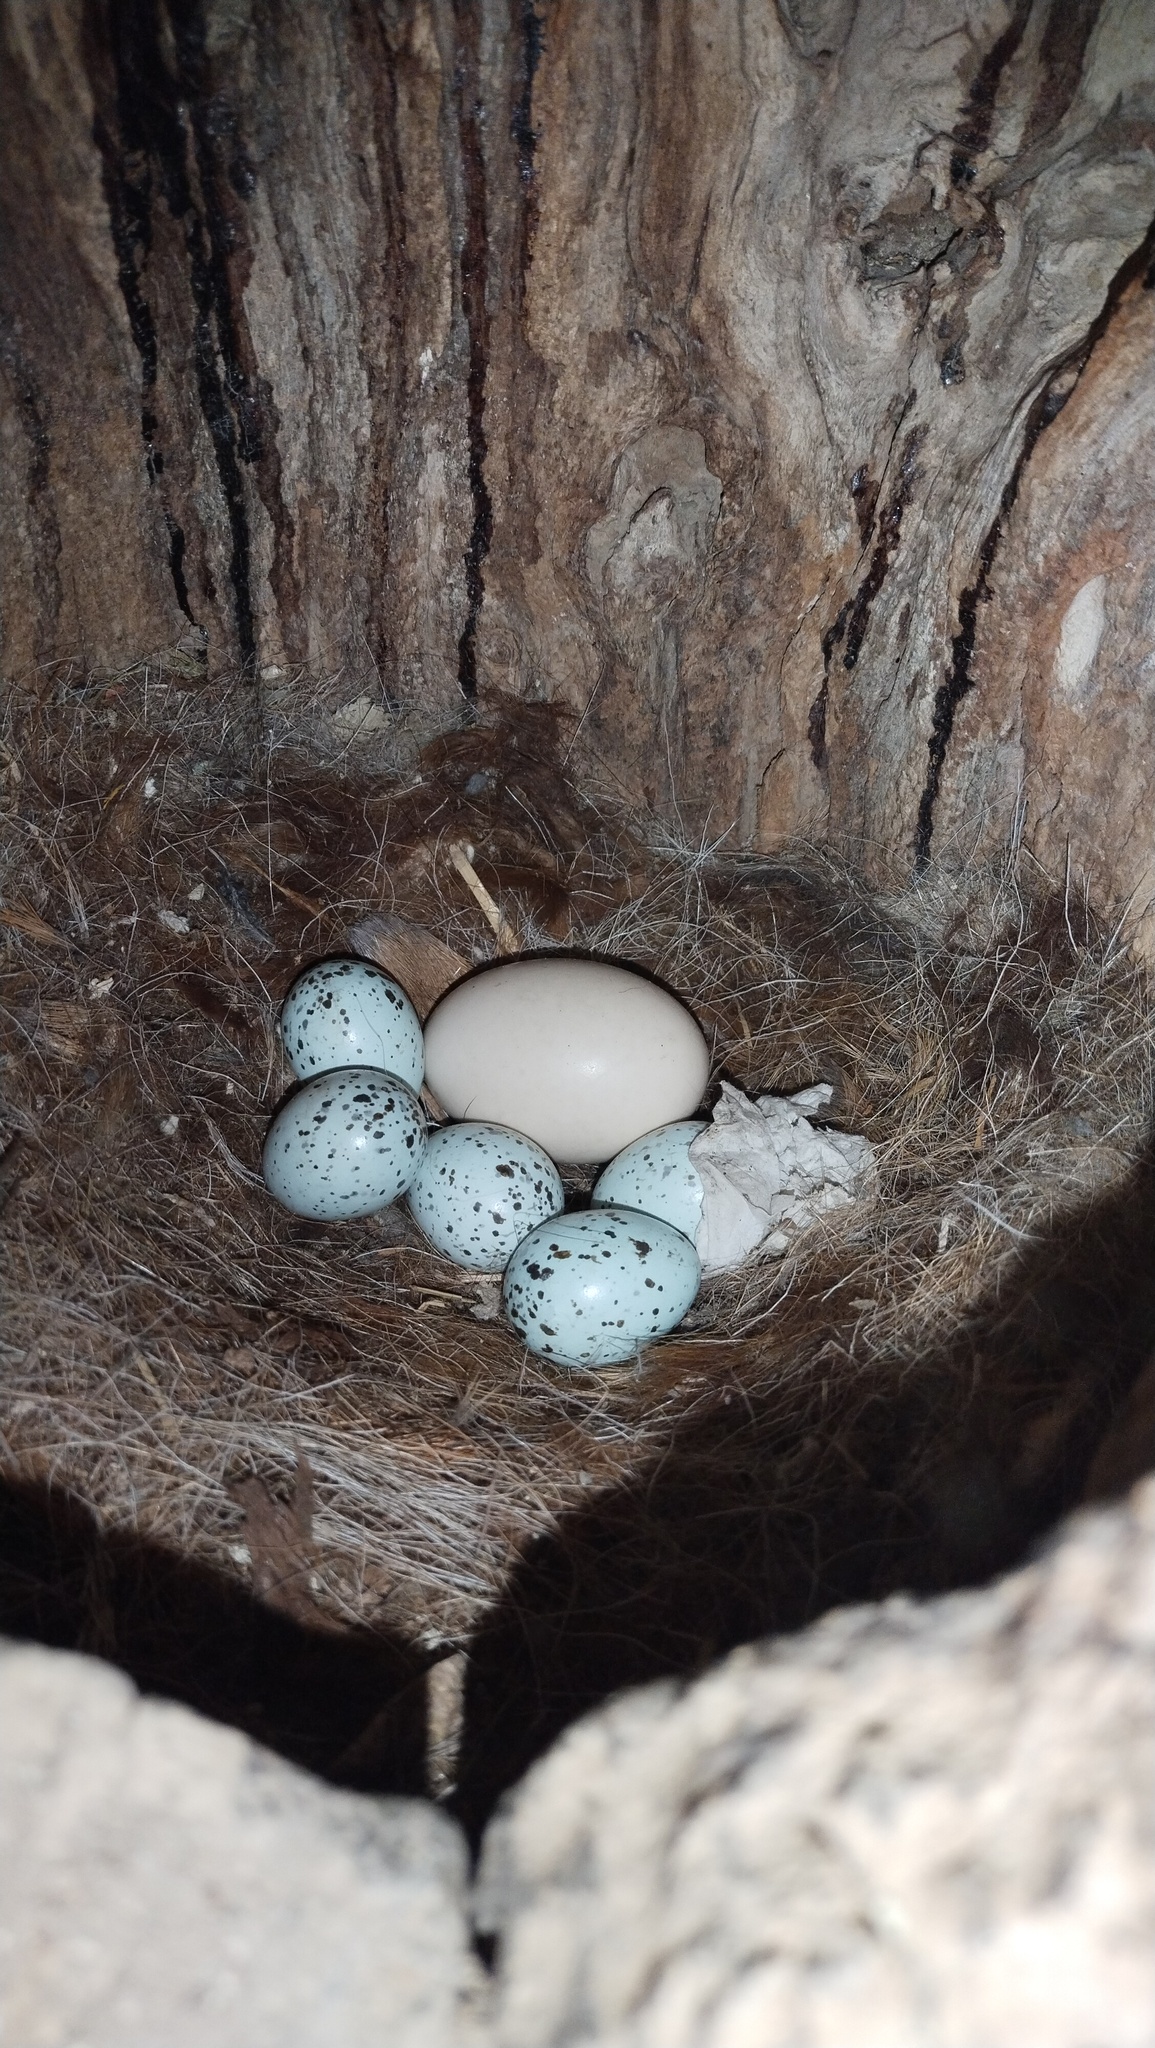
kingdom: Animalia
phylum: Chordata
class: Aves
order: Passeriformes
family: Corvidae
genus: Coloeus
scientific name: Coloeus dauuricus
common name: Daurian jackdaw
